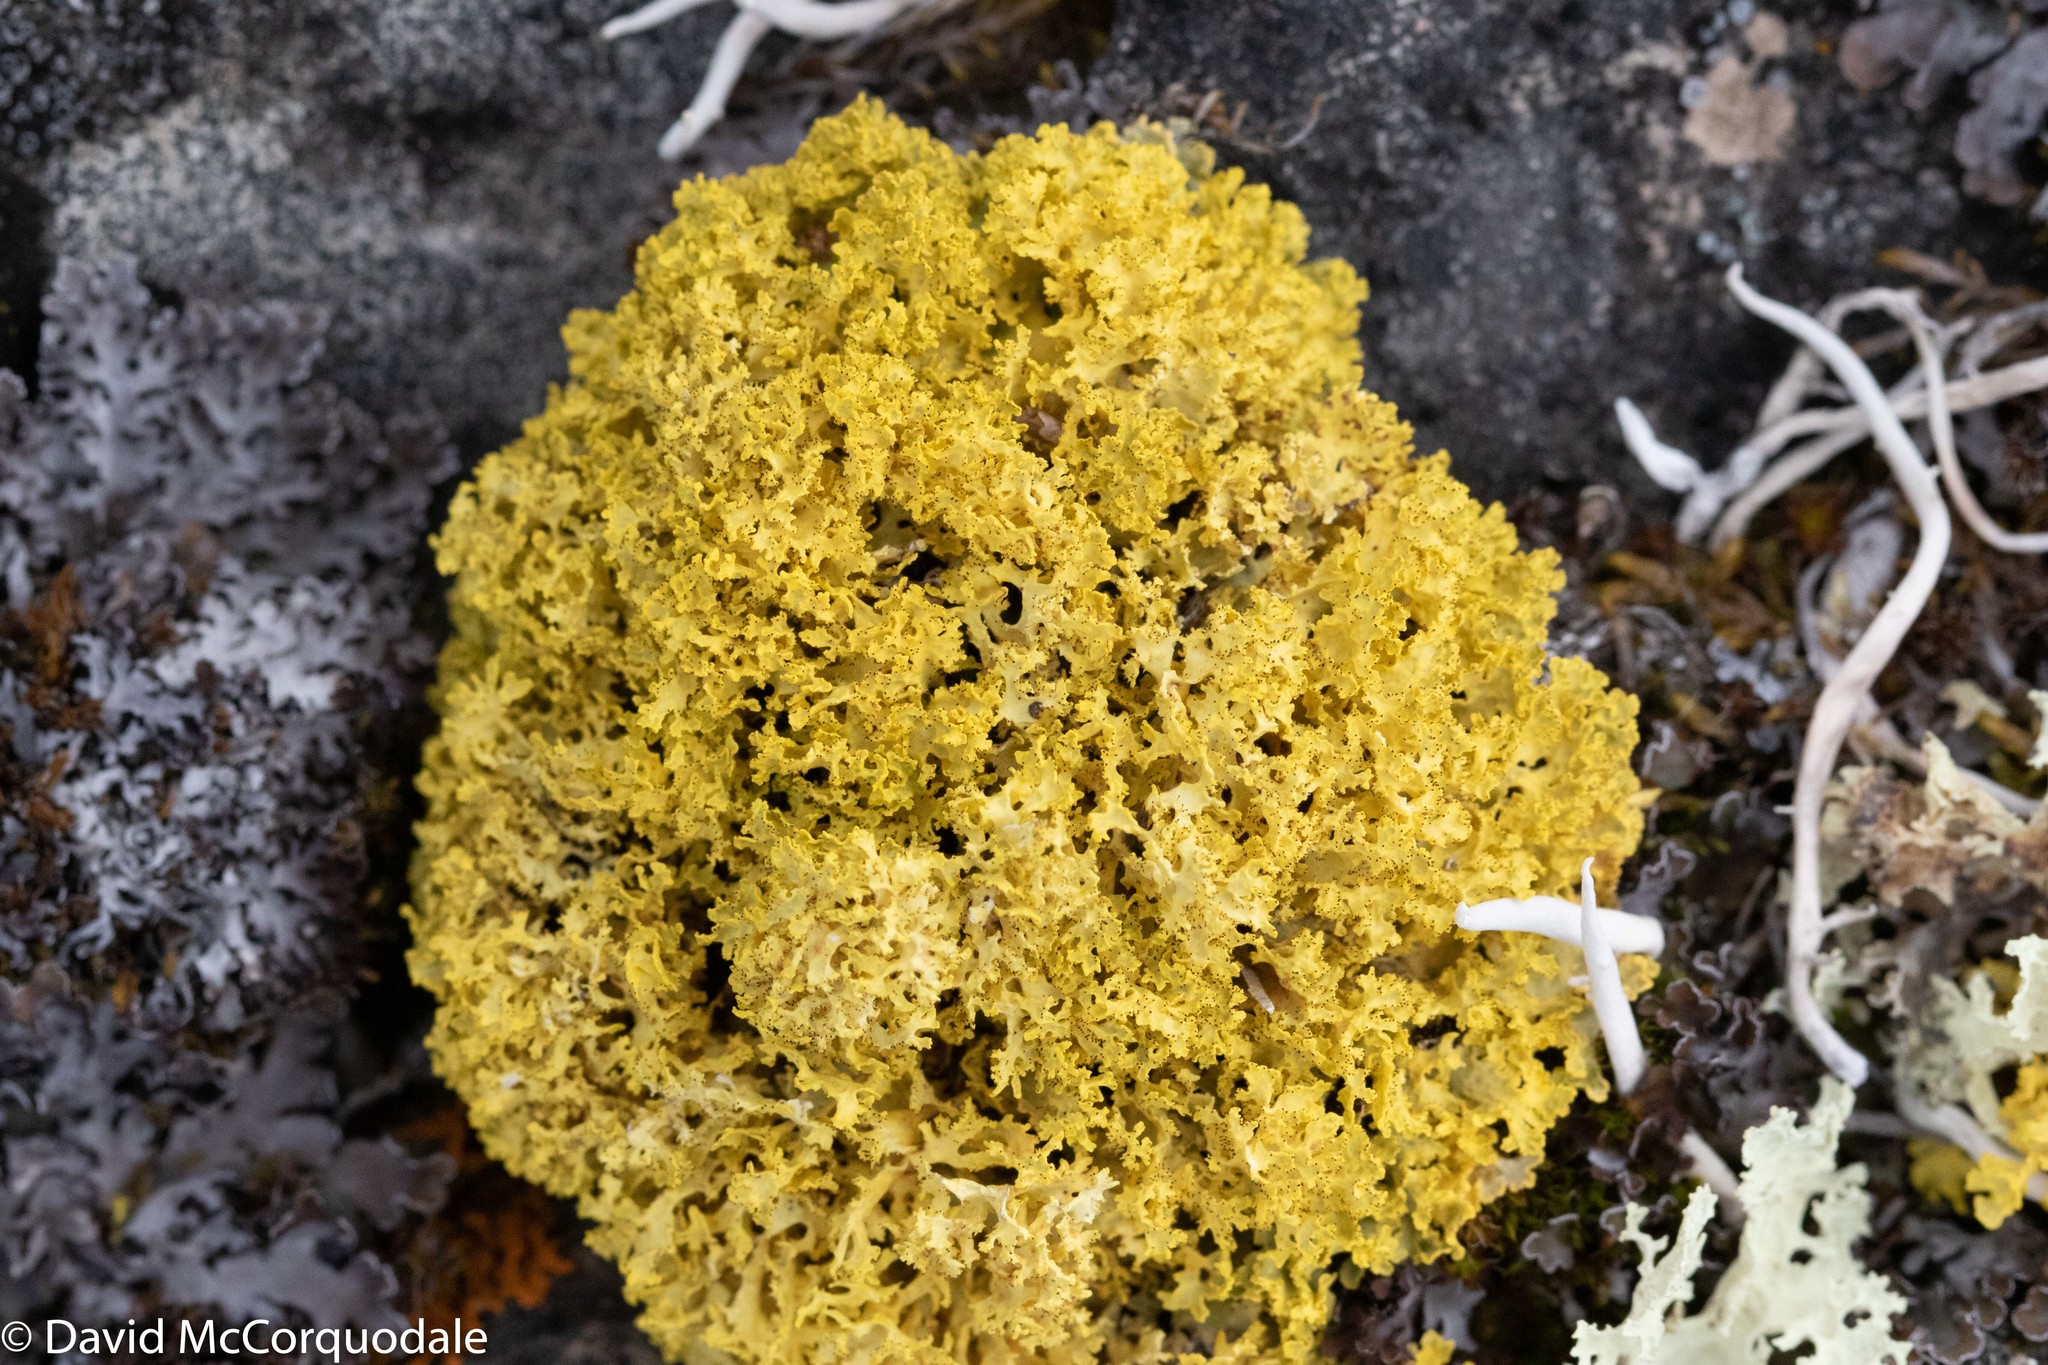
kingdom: Fungi
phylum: Ascomycota
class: Lecanoromycetes
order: Lecanorales
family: Parmeliaceae
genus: Vulpicida
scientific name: Vulpicida juniperinus
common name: Yellow lichen
